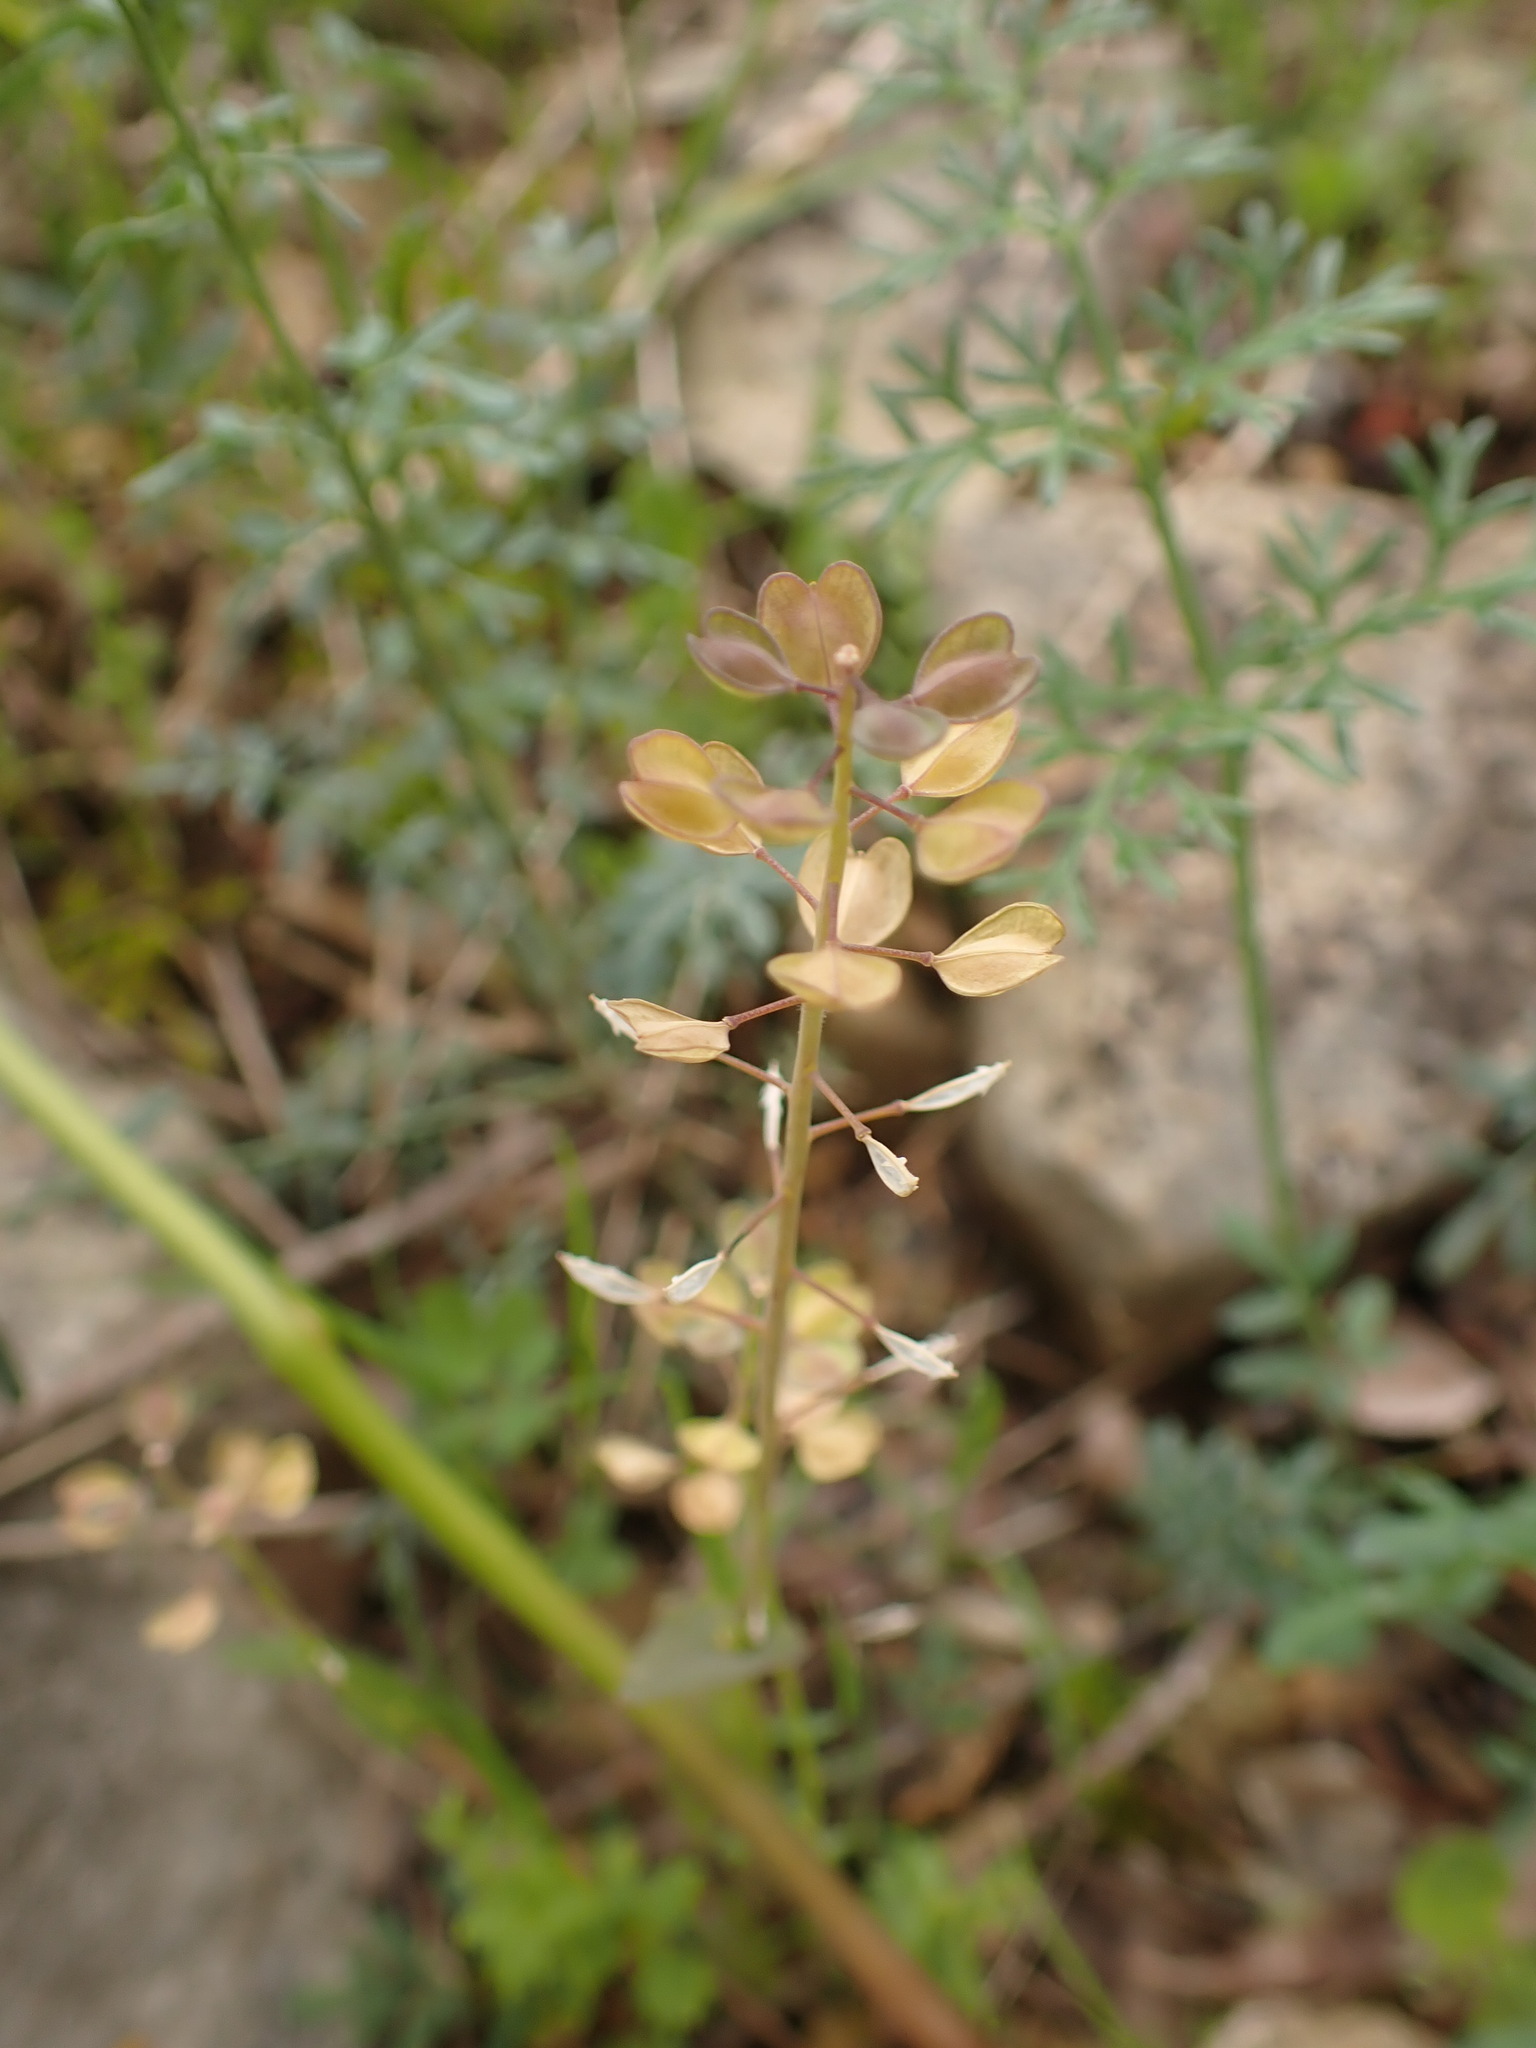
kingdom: Plantae
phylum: Tracheophyta
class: Magnoliopsida
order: Brassicales
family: Brassicaceae
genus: Noccaea
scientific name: Noccaea perfoliata
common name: Perfoliate pennycress
